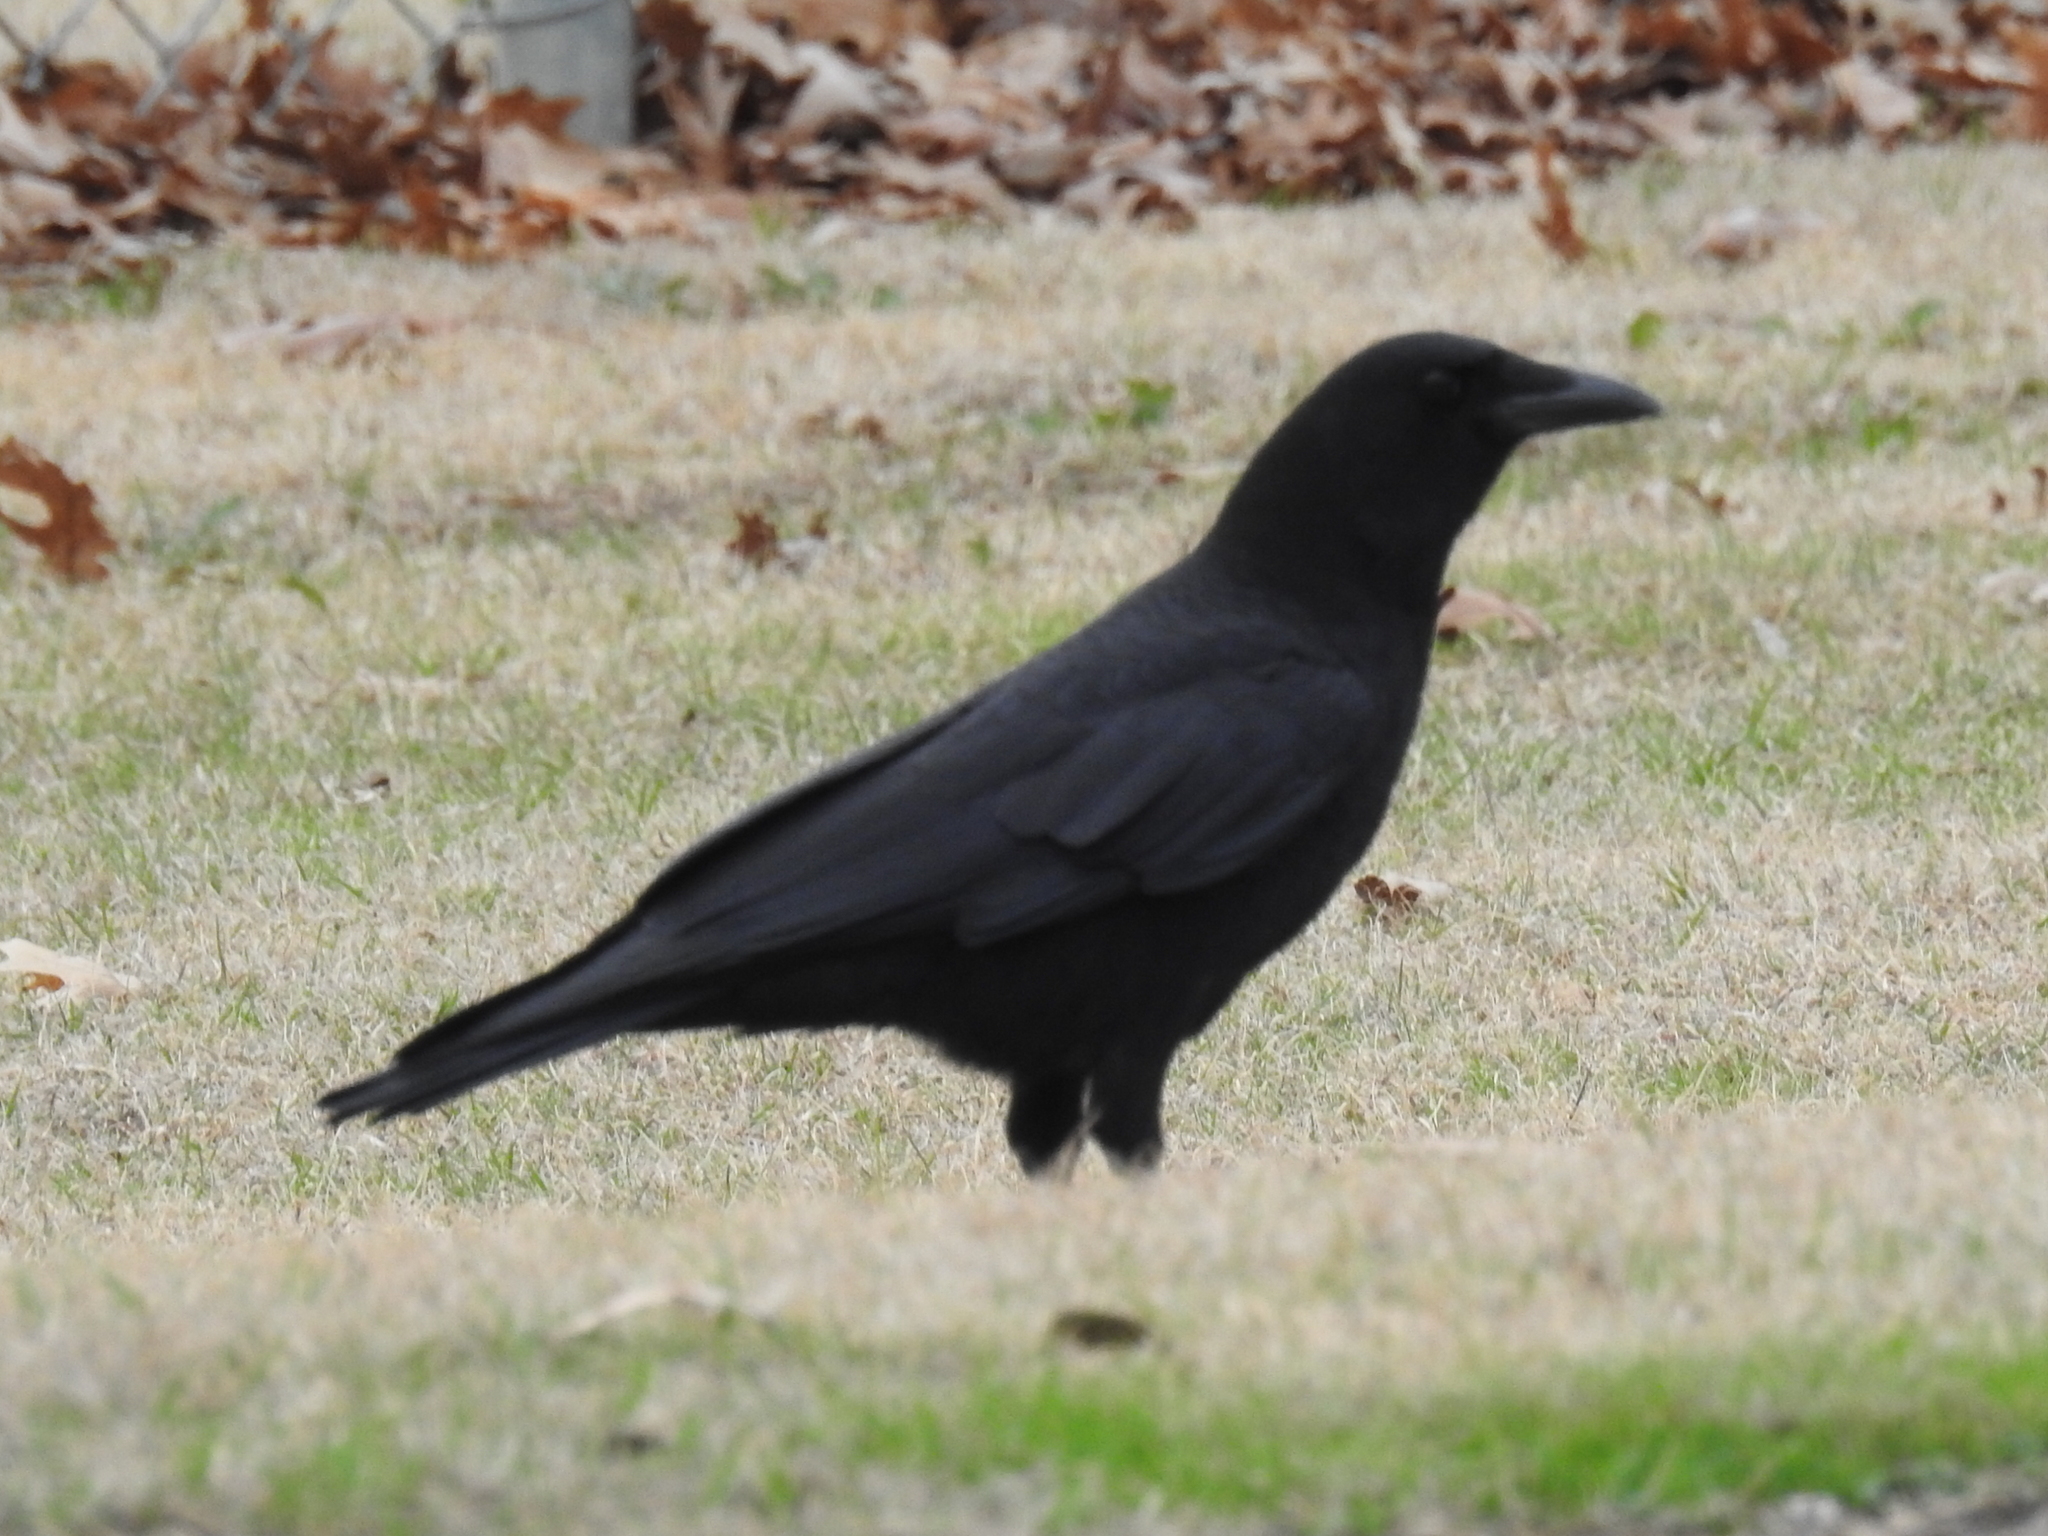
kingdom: Animalia
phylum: Chordata
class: Aves
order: Passeriformes
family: Corvidae
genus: Corvus
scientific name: Corvus brachyrhynchos
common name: American crow
